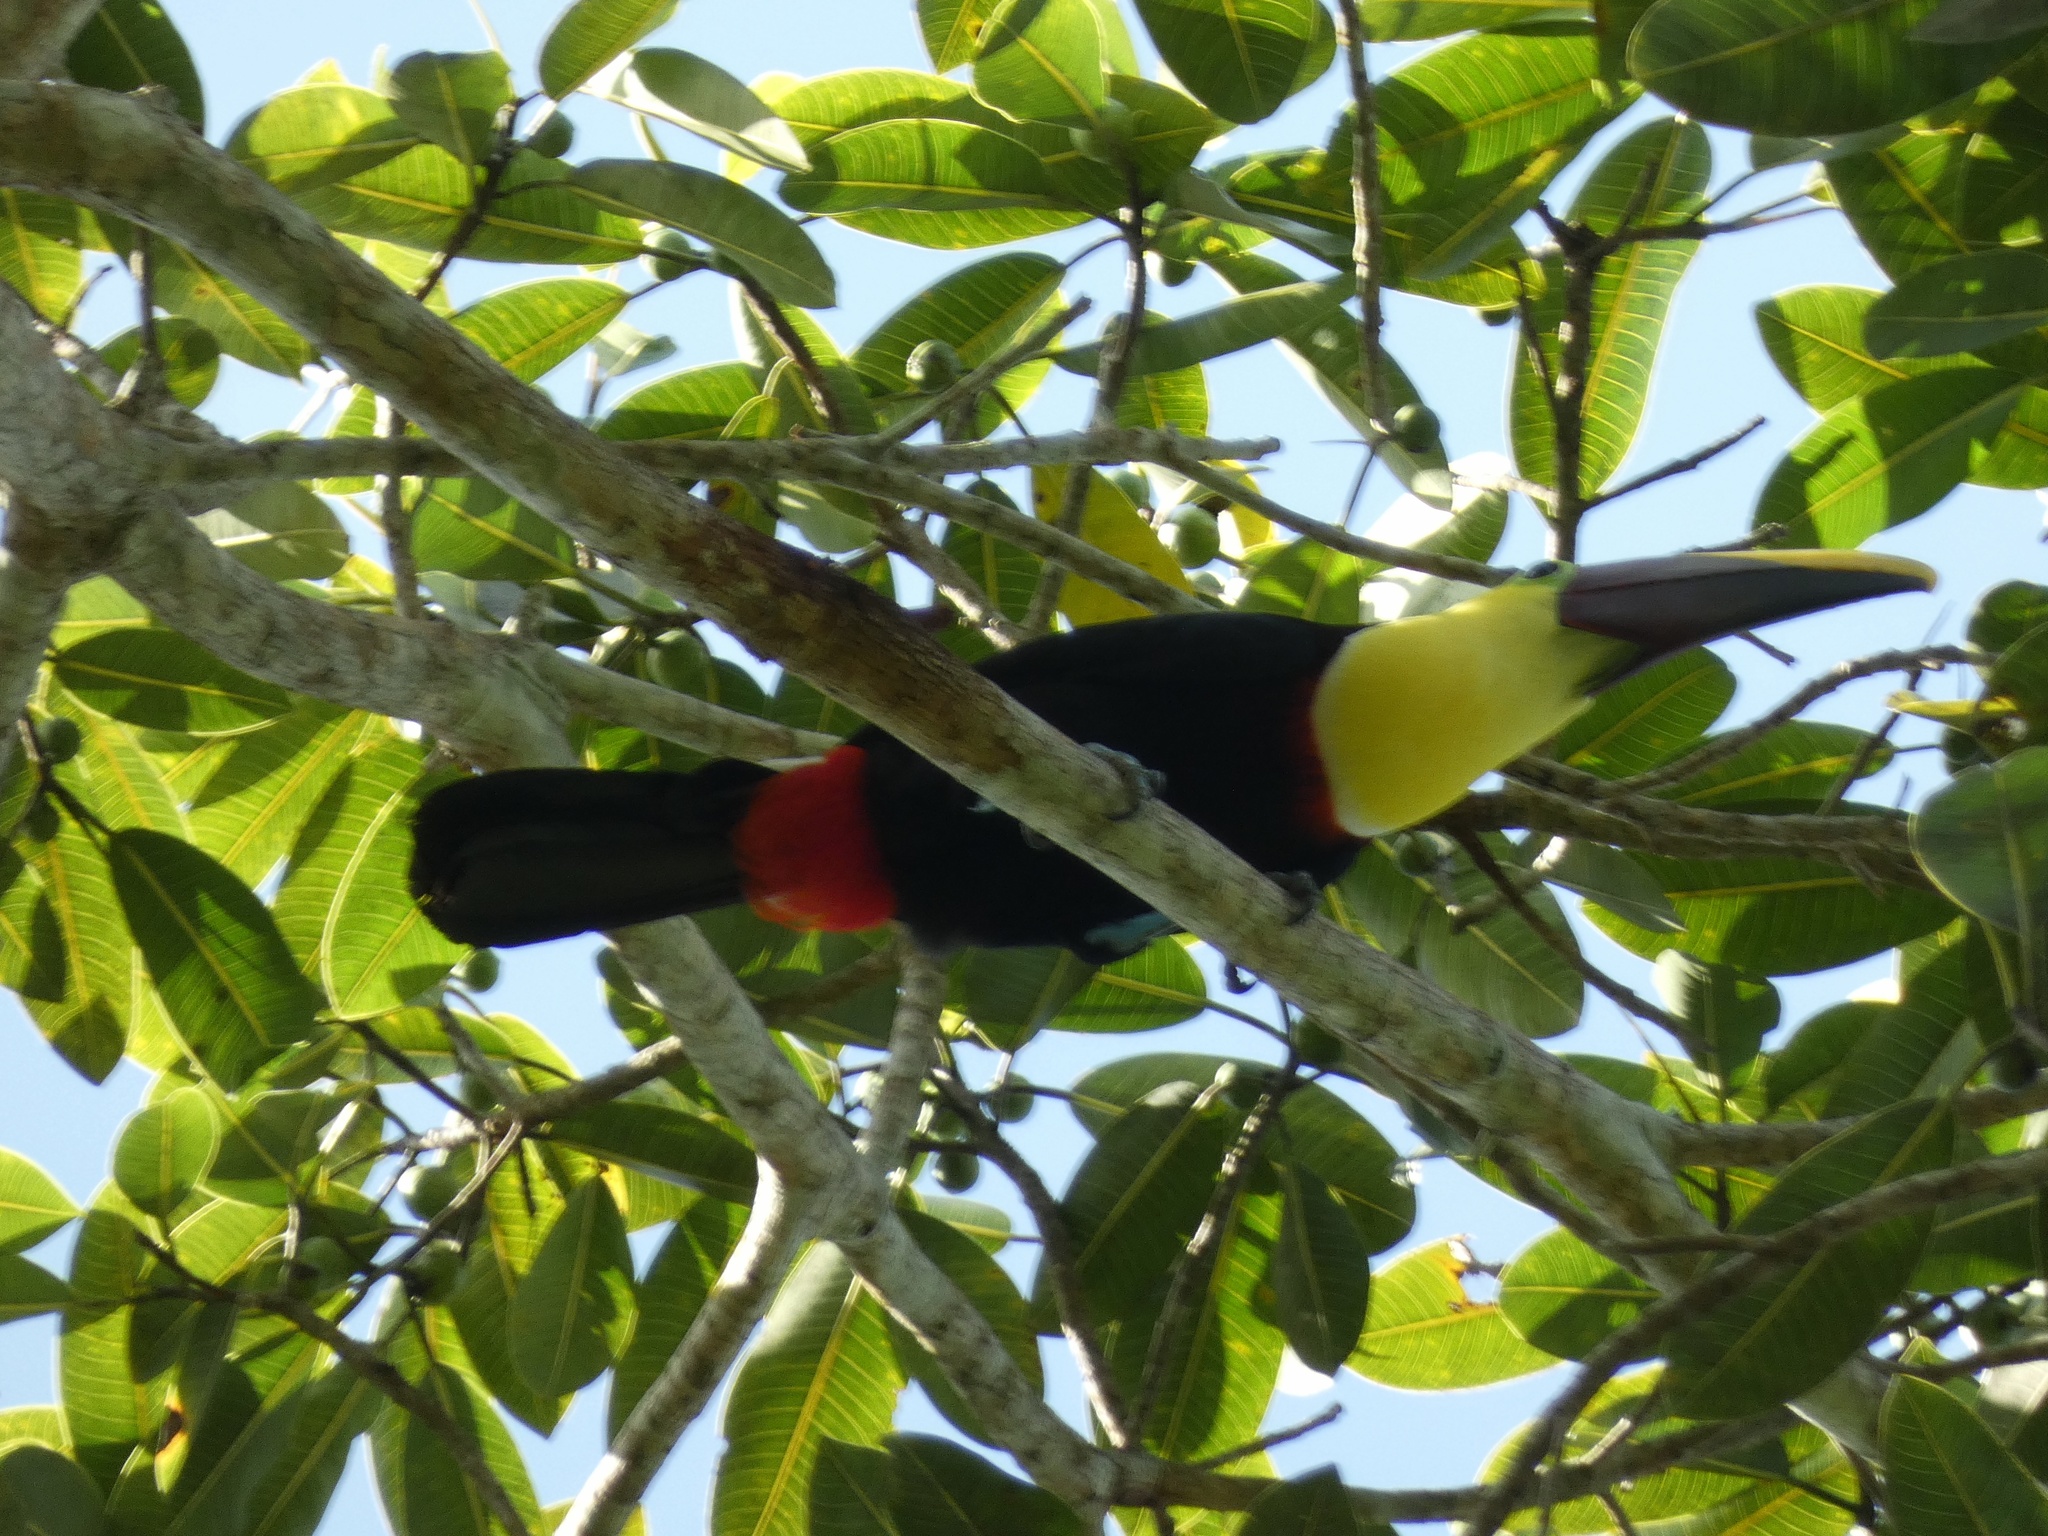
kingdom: Animalia
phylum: Chordata
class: Aves
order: Piciformes
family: Ramphastidae
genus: Ramphastos
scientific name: Ramphastos ambiguus
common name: Yellow-throated toucan
